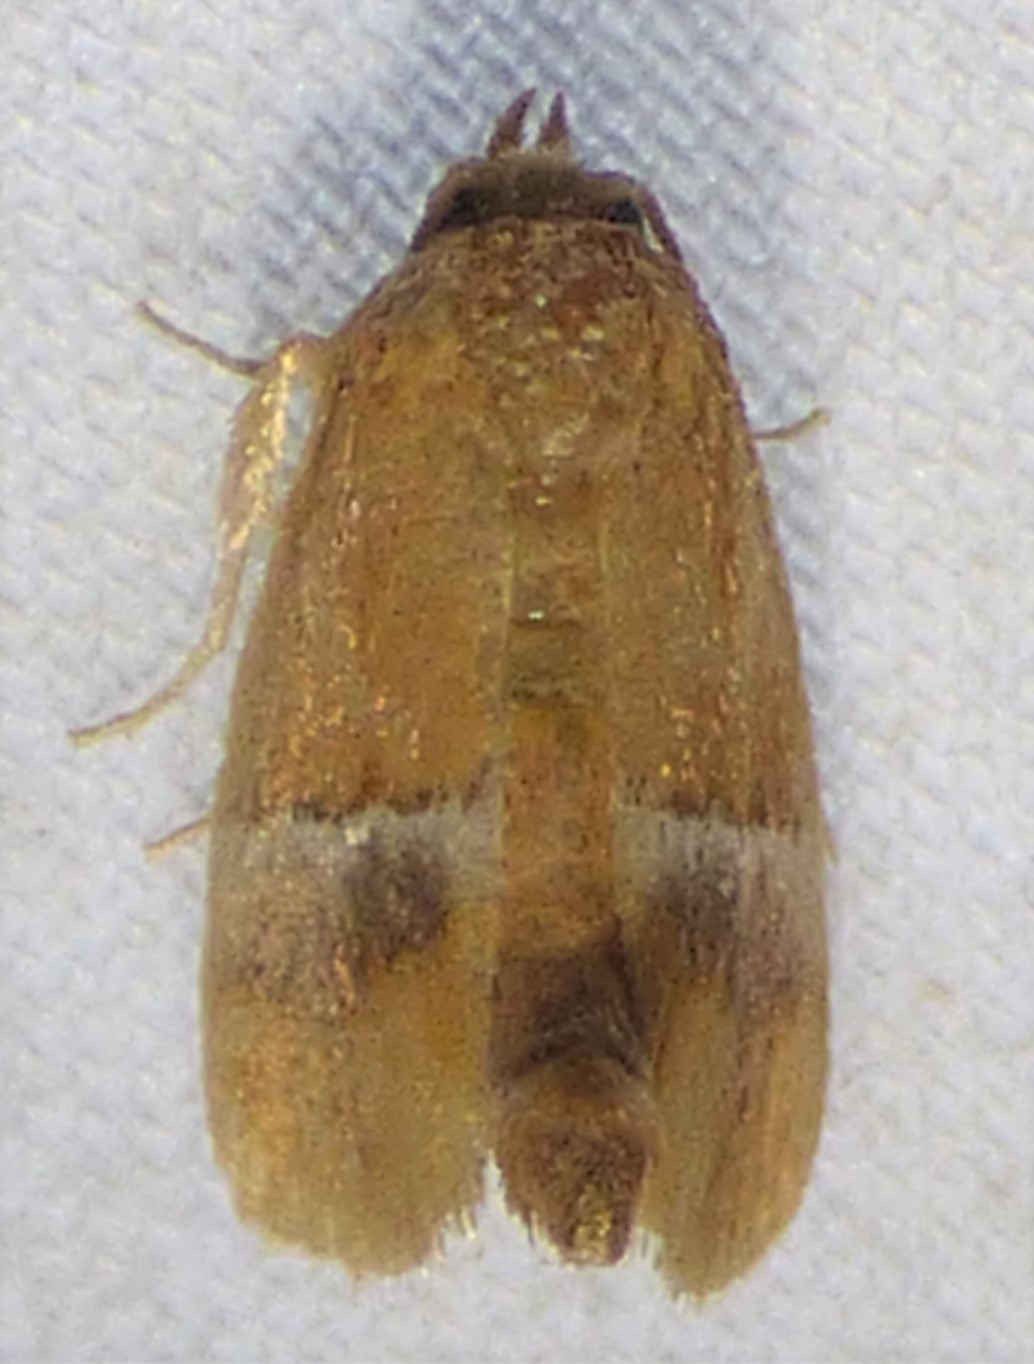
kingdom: Animalia
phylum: Arthropoda
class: Insecta
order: Lepidoptera
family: Limacodidae
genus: Lithacodes
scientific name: Lithacodes fasciola
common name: Yellow-shouldered slug moth
